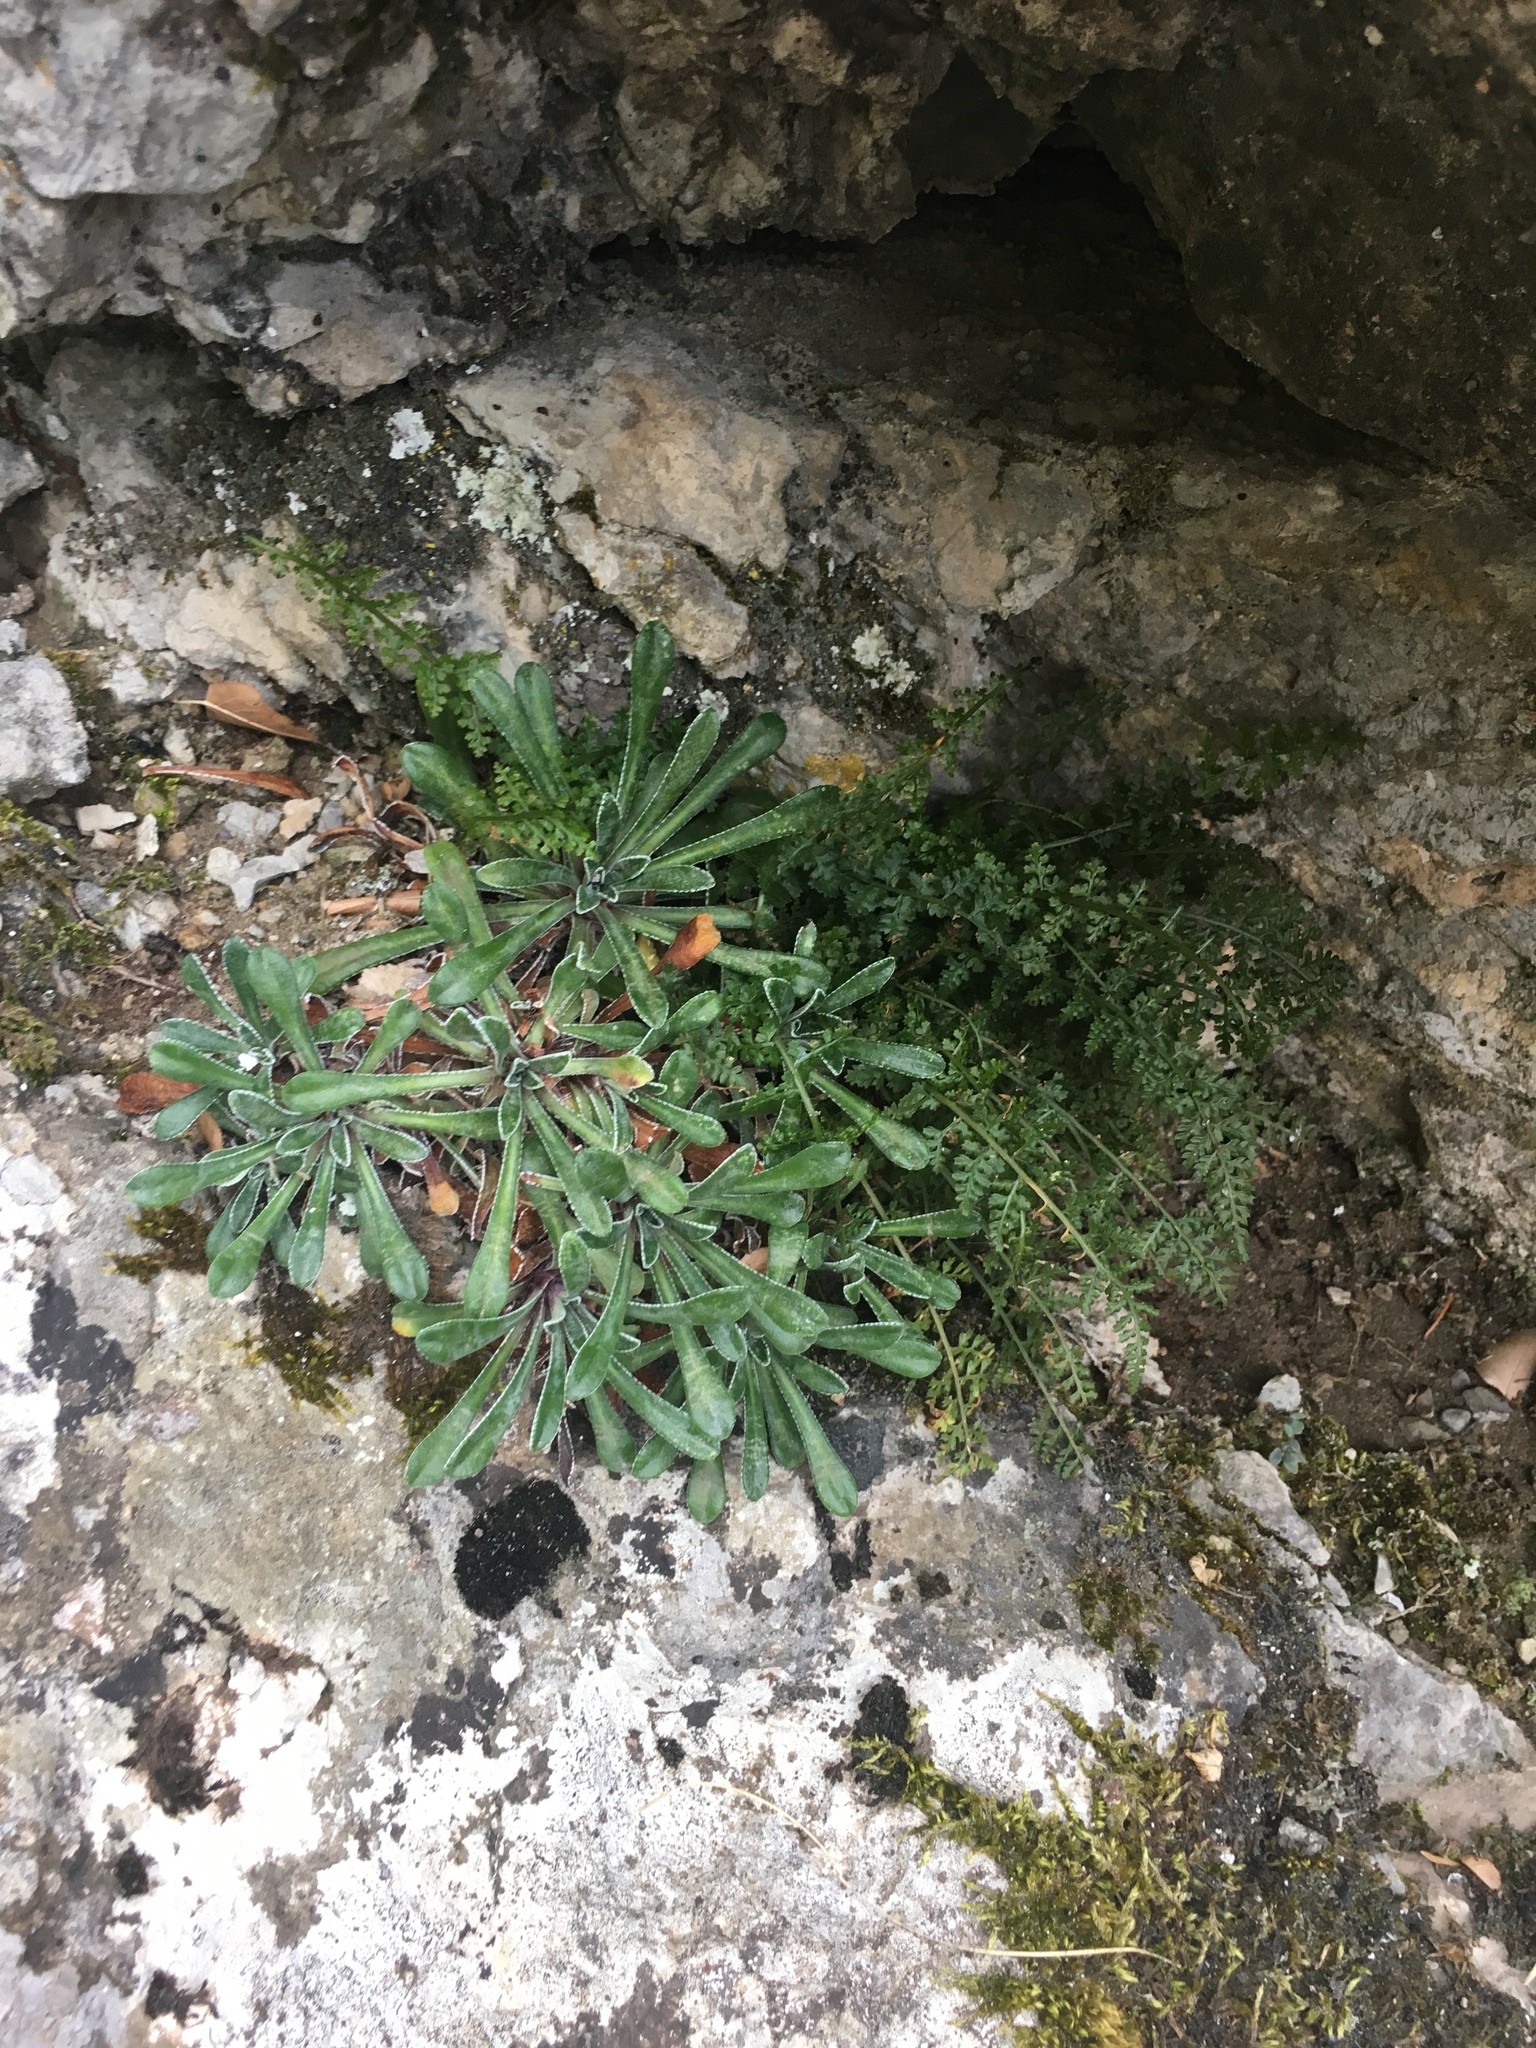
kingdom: Plantae
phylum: Tracheophyta
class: Polypodiopsida
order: Polypodiales
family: Aspleniaceae
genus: Asplenium
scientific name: Asplenium fontanum
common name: Fountain spleenwort
